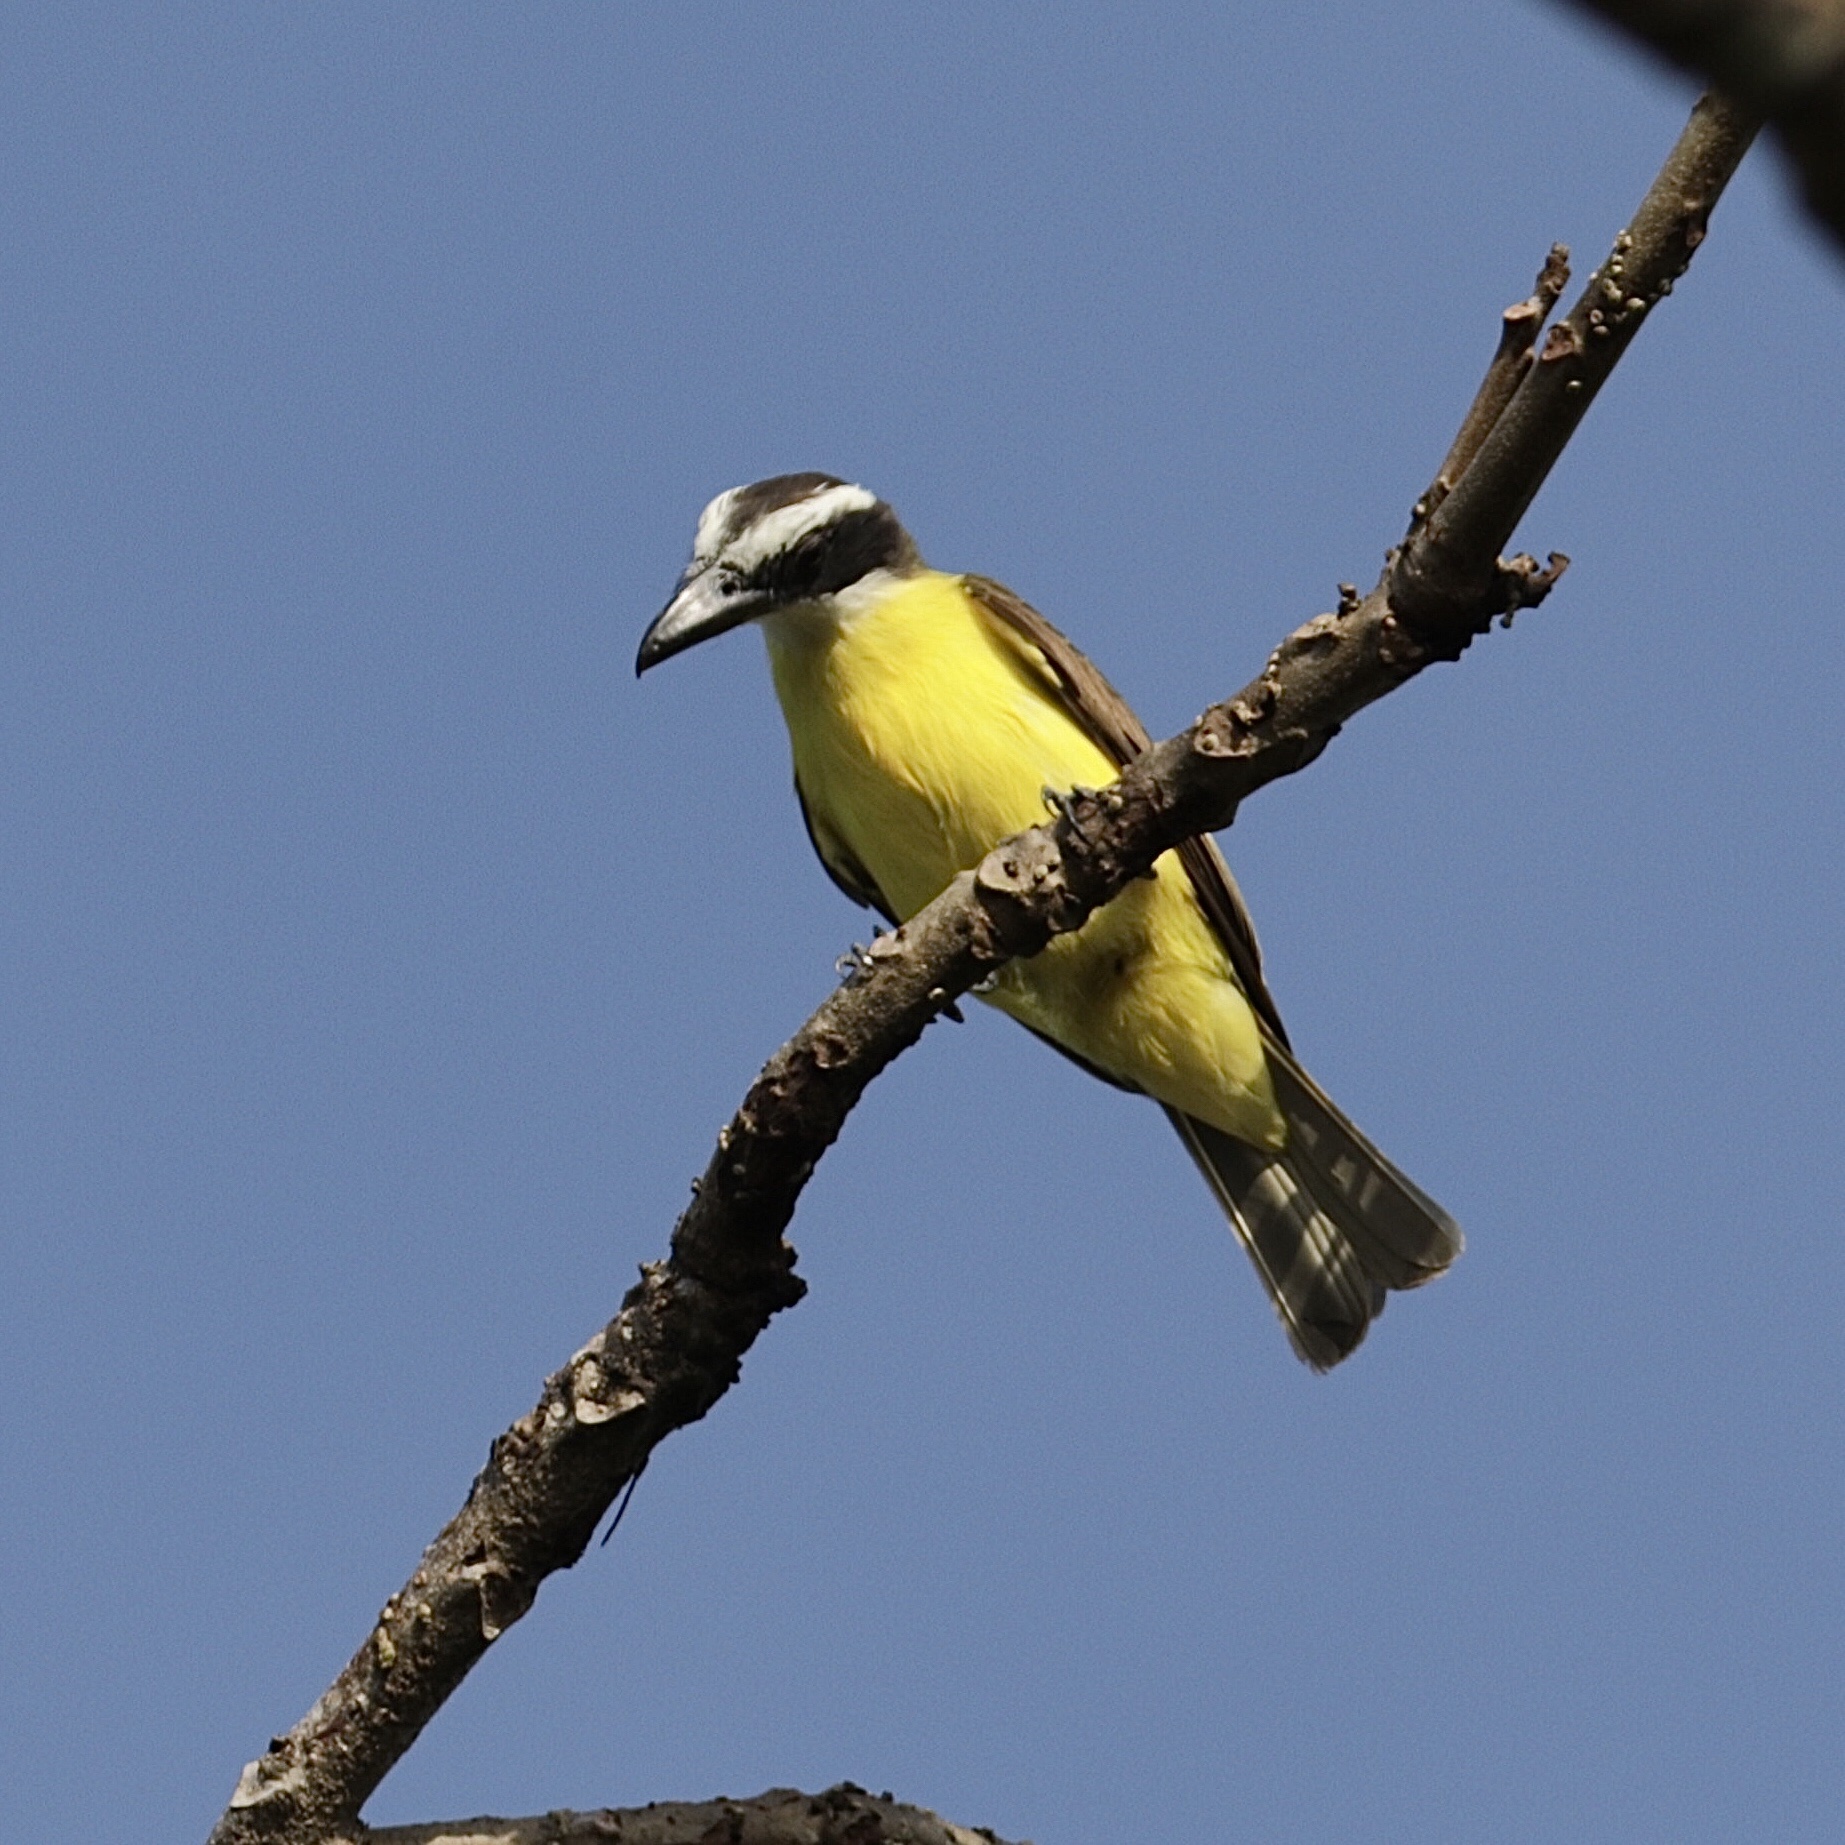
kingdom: Animalia
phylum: Chordata
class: Aves
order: Passeriformes
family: Tyrannidae
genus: Megarynchus
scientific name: Megarynchus pitangua
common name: Boat-billed flycatcher
